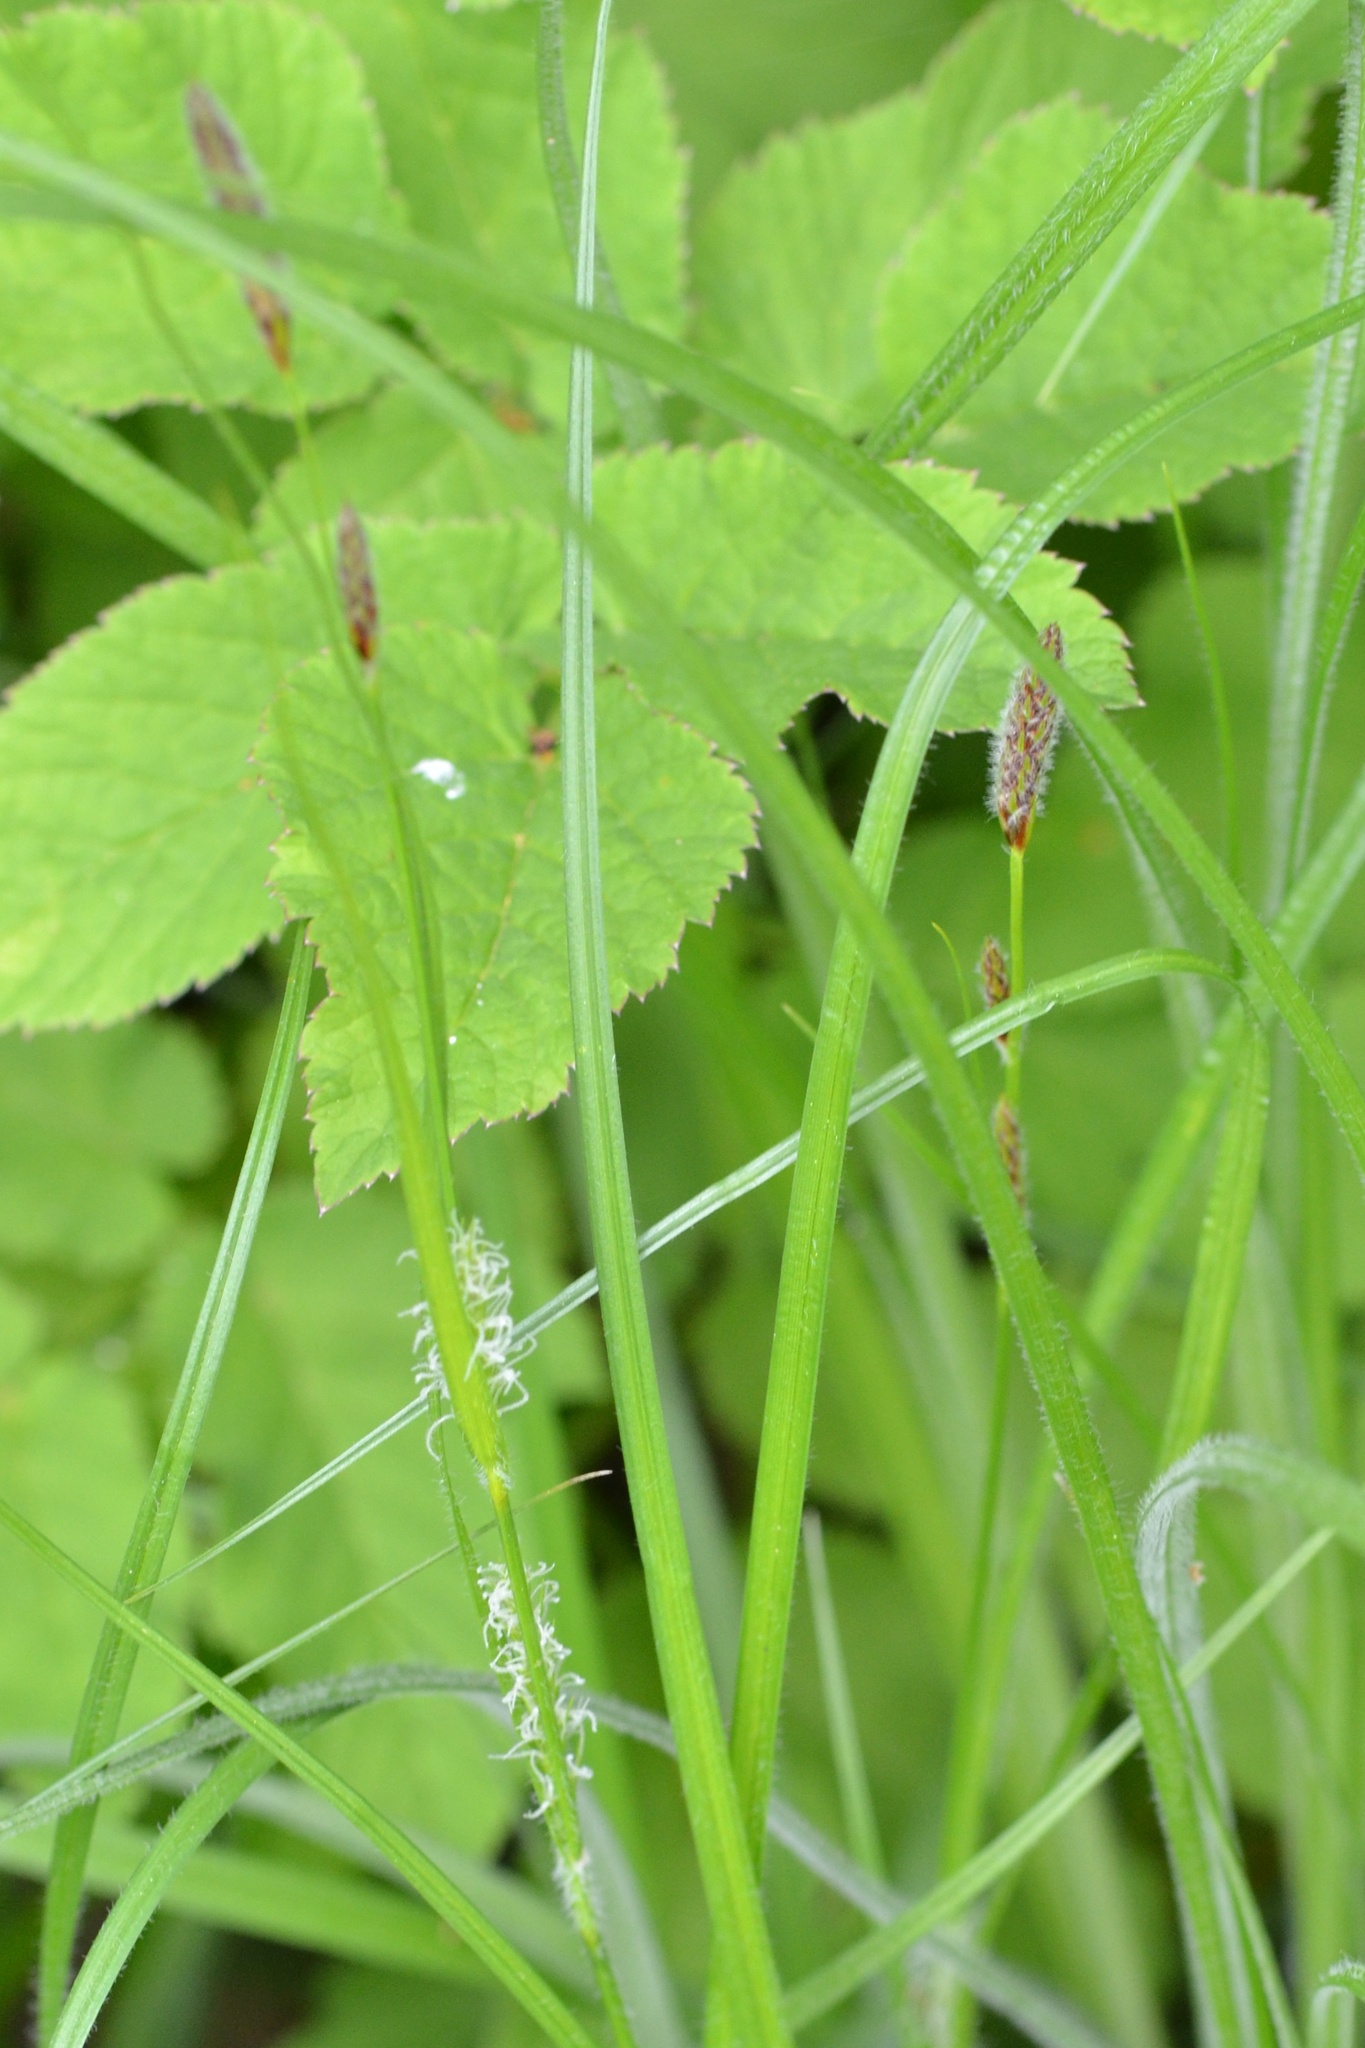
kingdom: Plantae
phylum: Tracheophyta
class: Liliopsida
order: Poales
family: Cyperaceae
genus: Carex
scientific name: Carex hirta
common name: Hairy sedge
